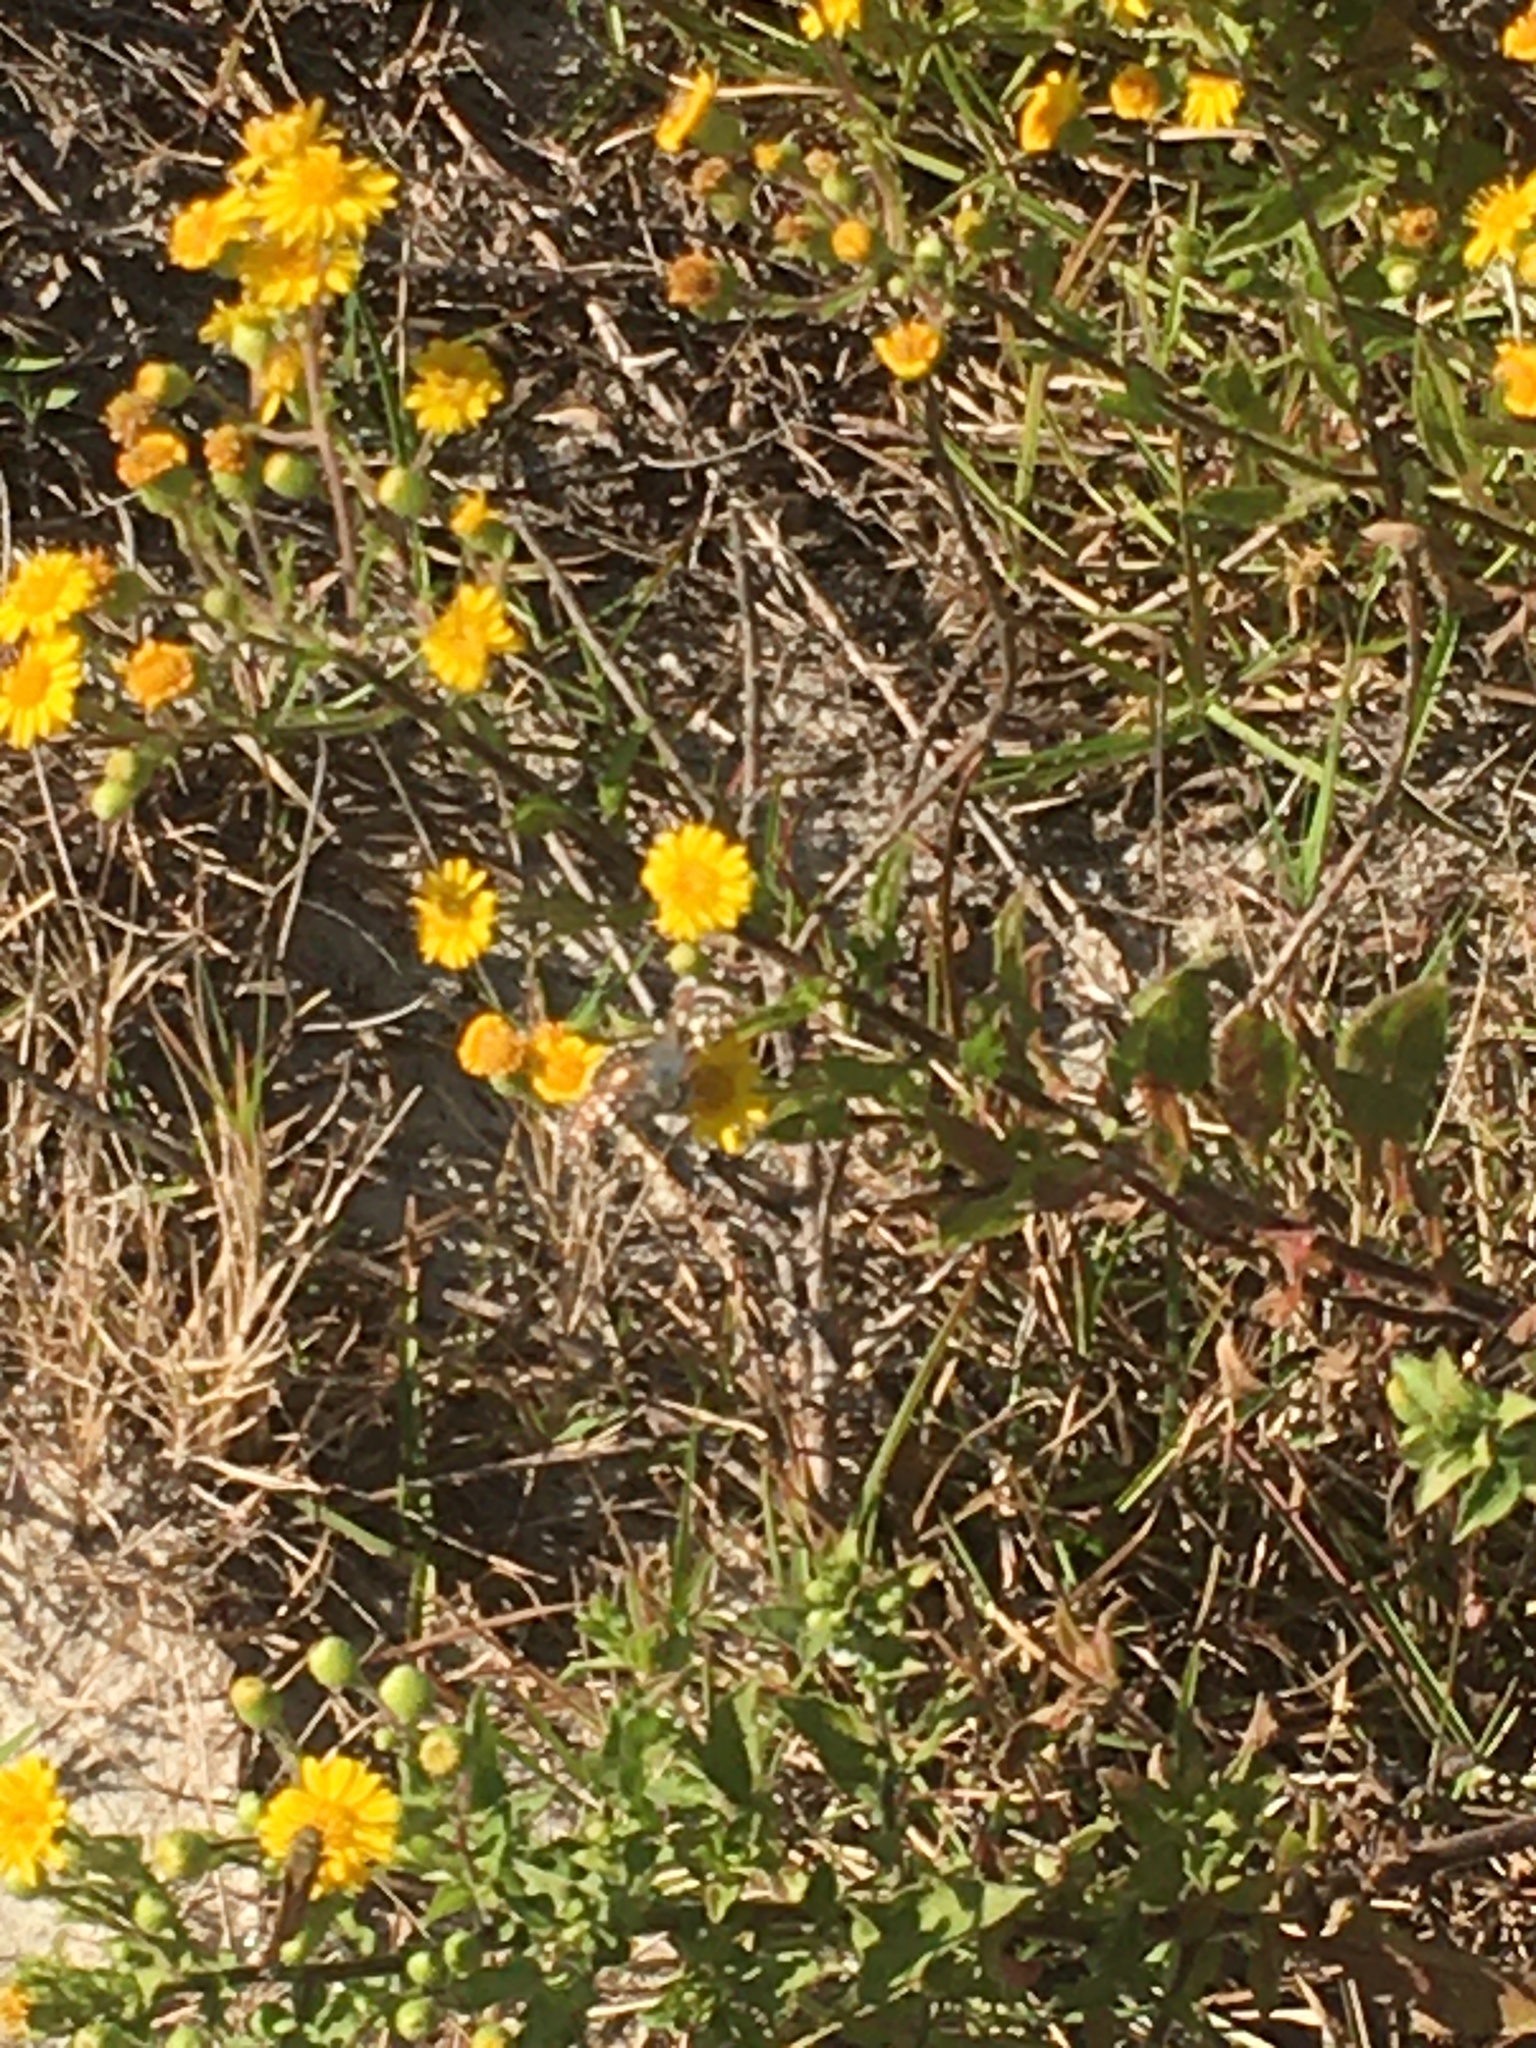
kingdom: Plantae
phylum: Tracheophyta
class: Magnoliopsida
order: Asterales
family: Asteraceae
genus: Heterotheca
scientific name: Heterotheca subaxillaris
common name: Camphorweed
